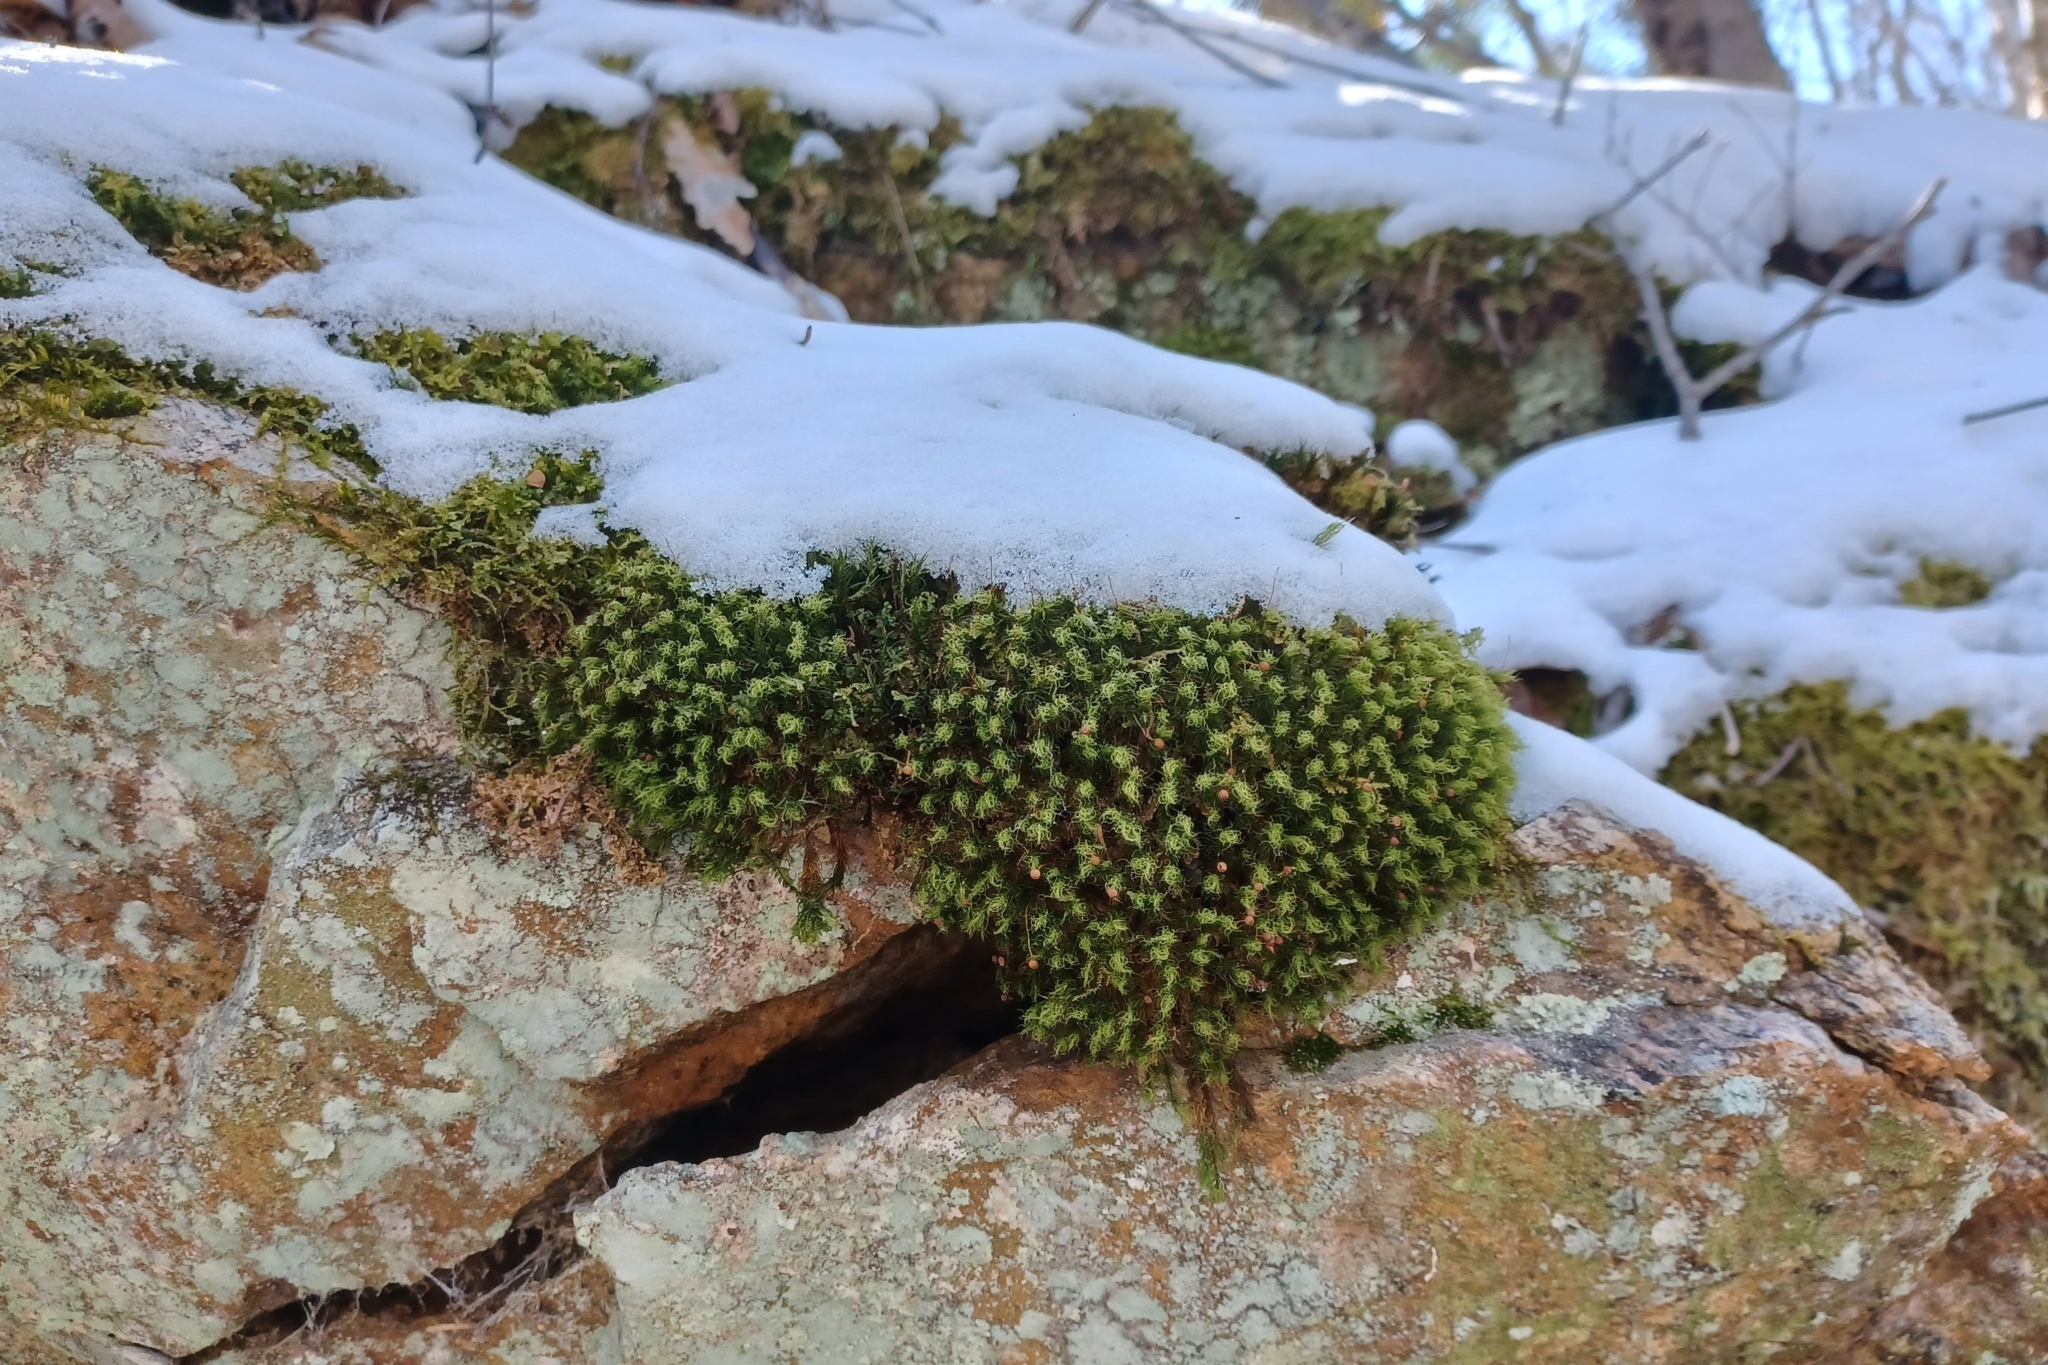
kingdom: Plantae
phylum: Bryophyta
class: Bryopsida
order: Bartramiales
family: Bartramiaceae
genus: Bartramia
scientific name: Bartramia ithyphylla
